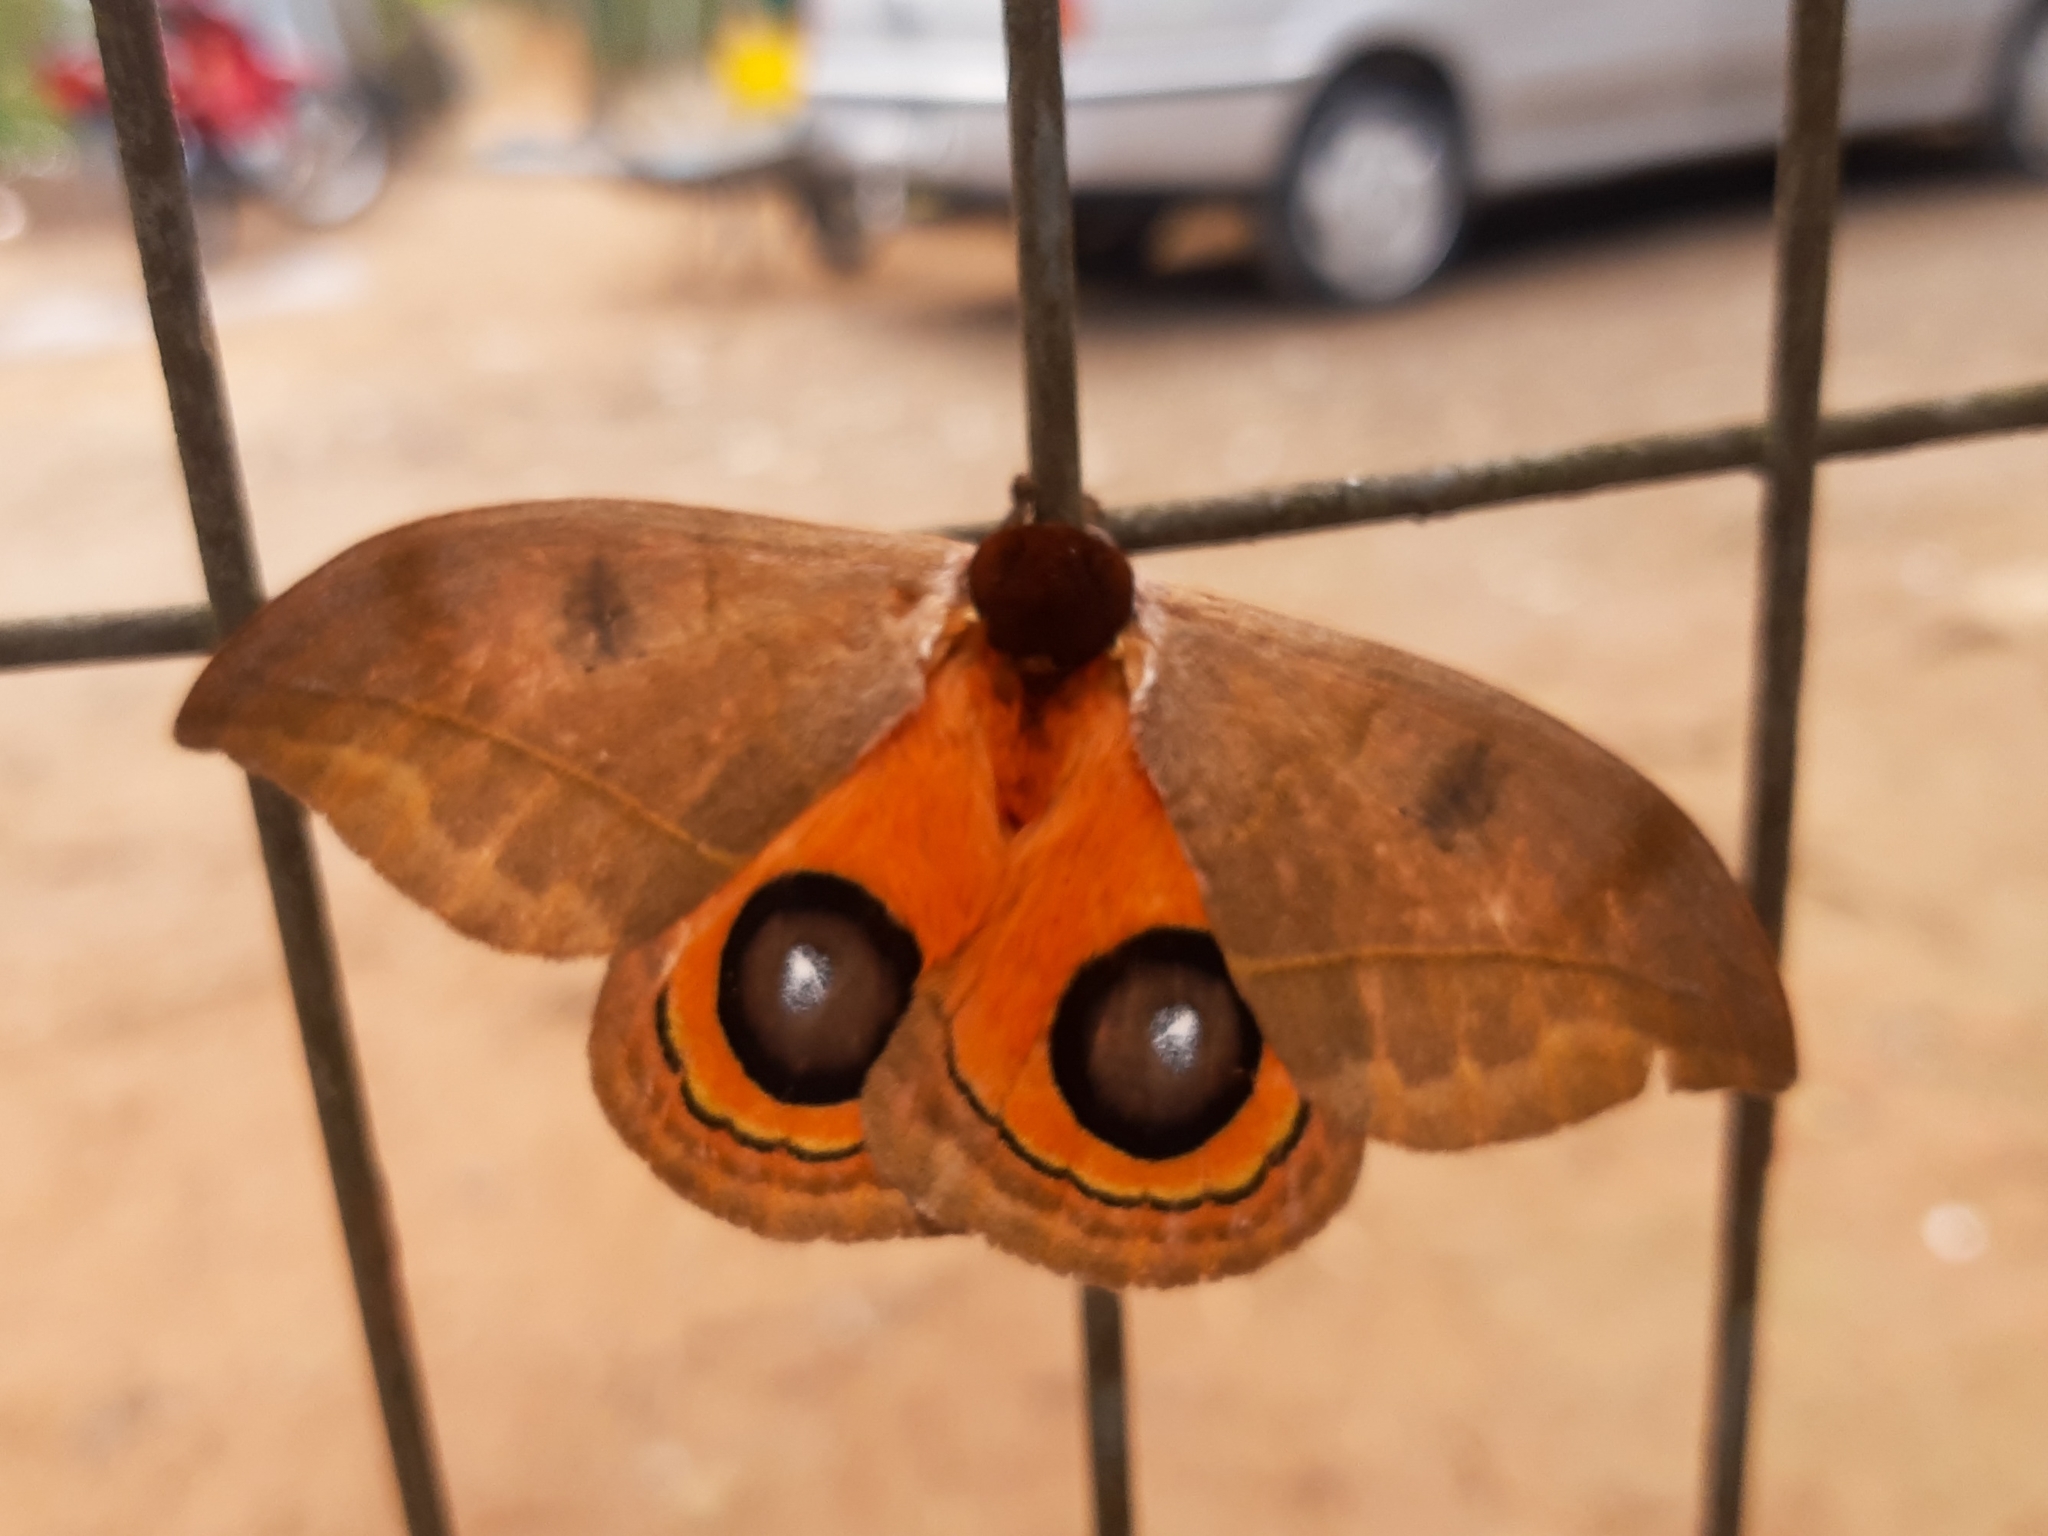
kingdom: Animalia
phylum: Arthropoda
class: Insecta
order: Lepidoptera
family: Saturniidae
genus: Automeris
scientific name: Automeris illustris
